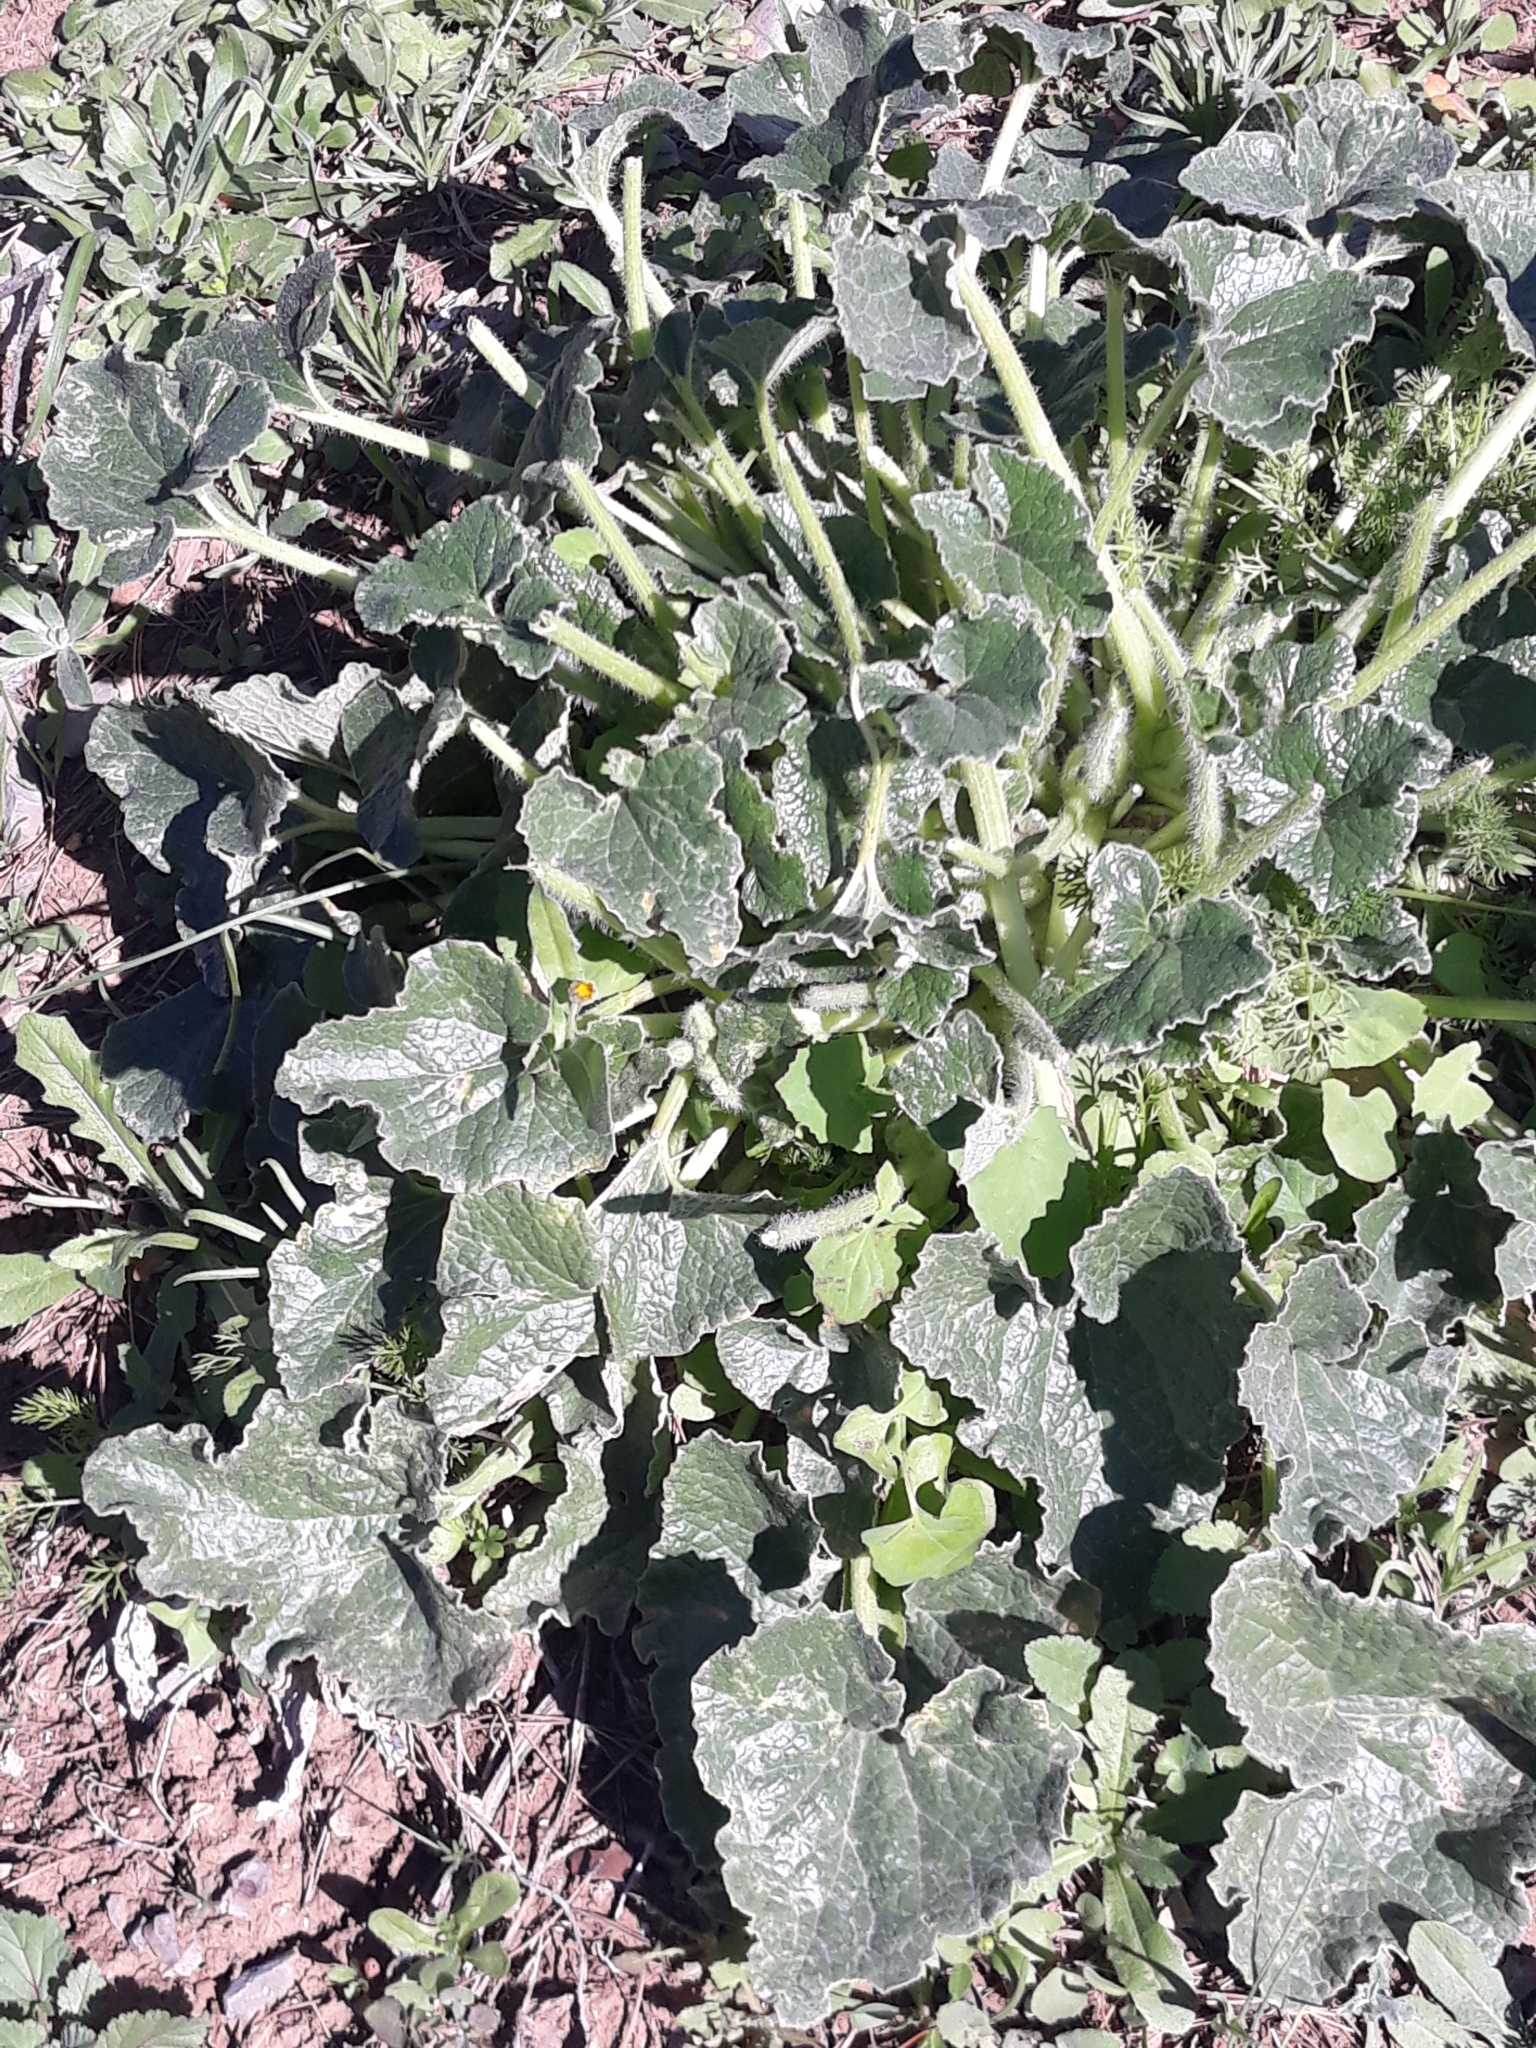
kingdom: Plantae
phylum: Tracheophyta
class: Magnoliopsida
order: Cucurbitales
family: Cucurbitaceae
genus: Ecballium
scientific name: Ecballium elaterium
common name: Squirting cucumber
